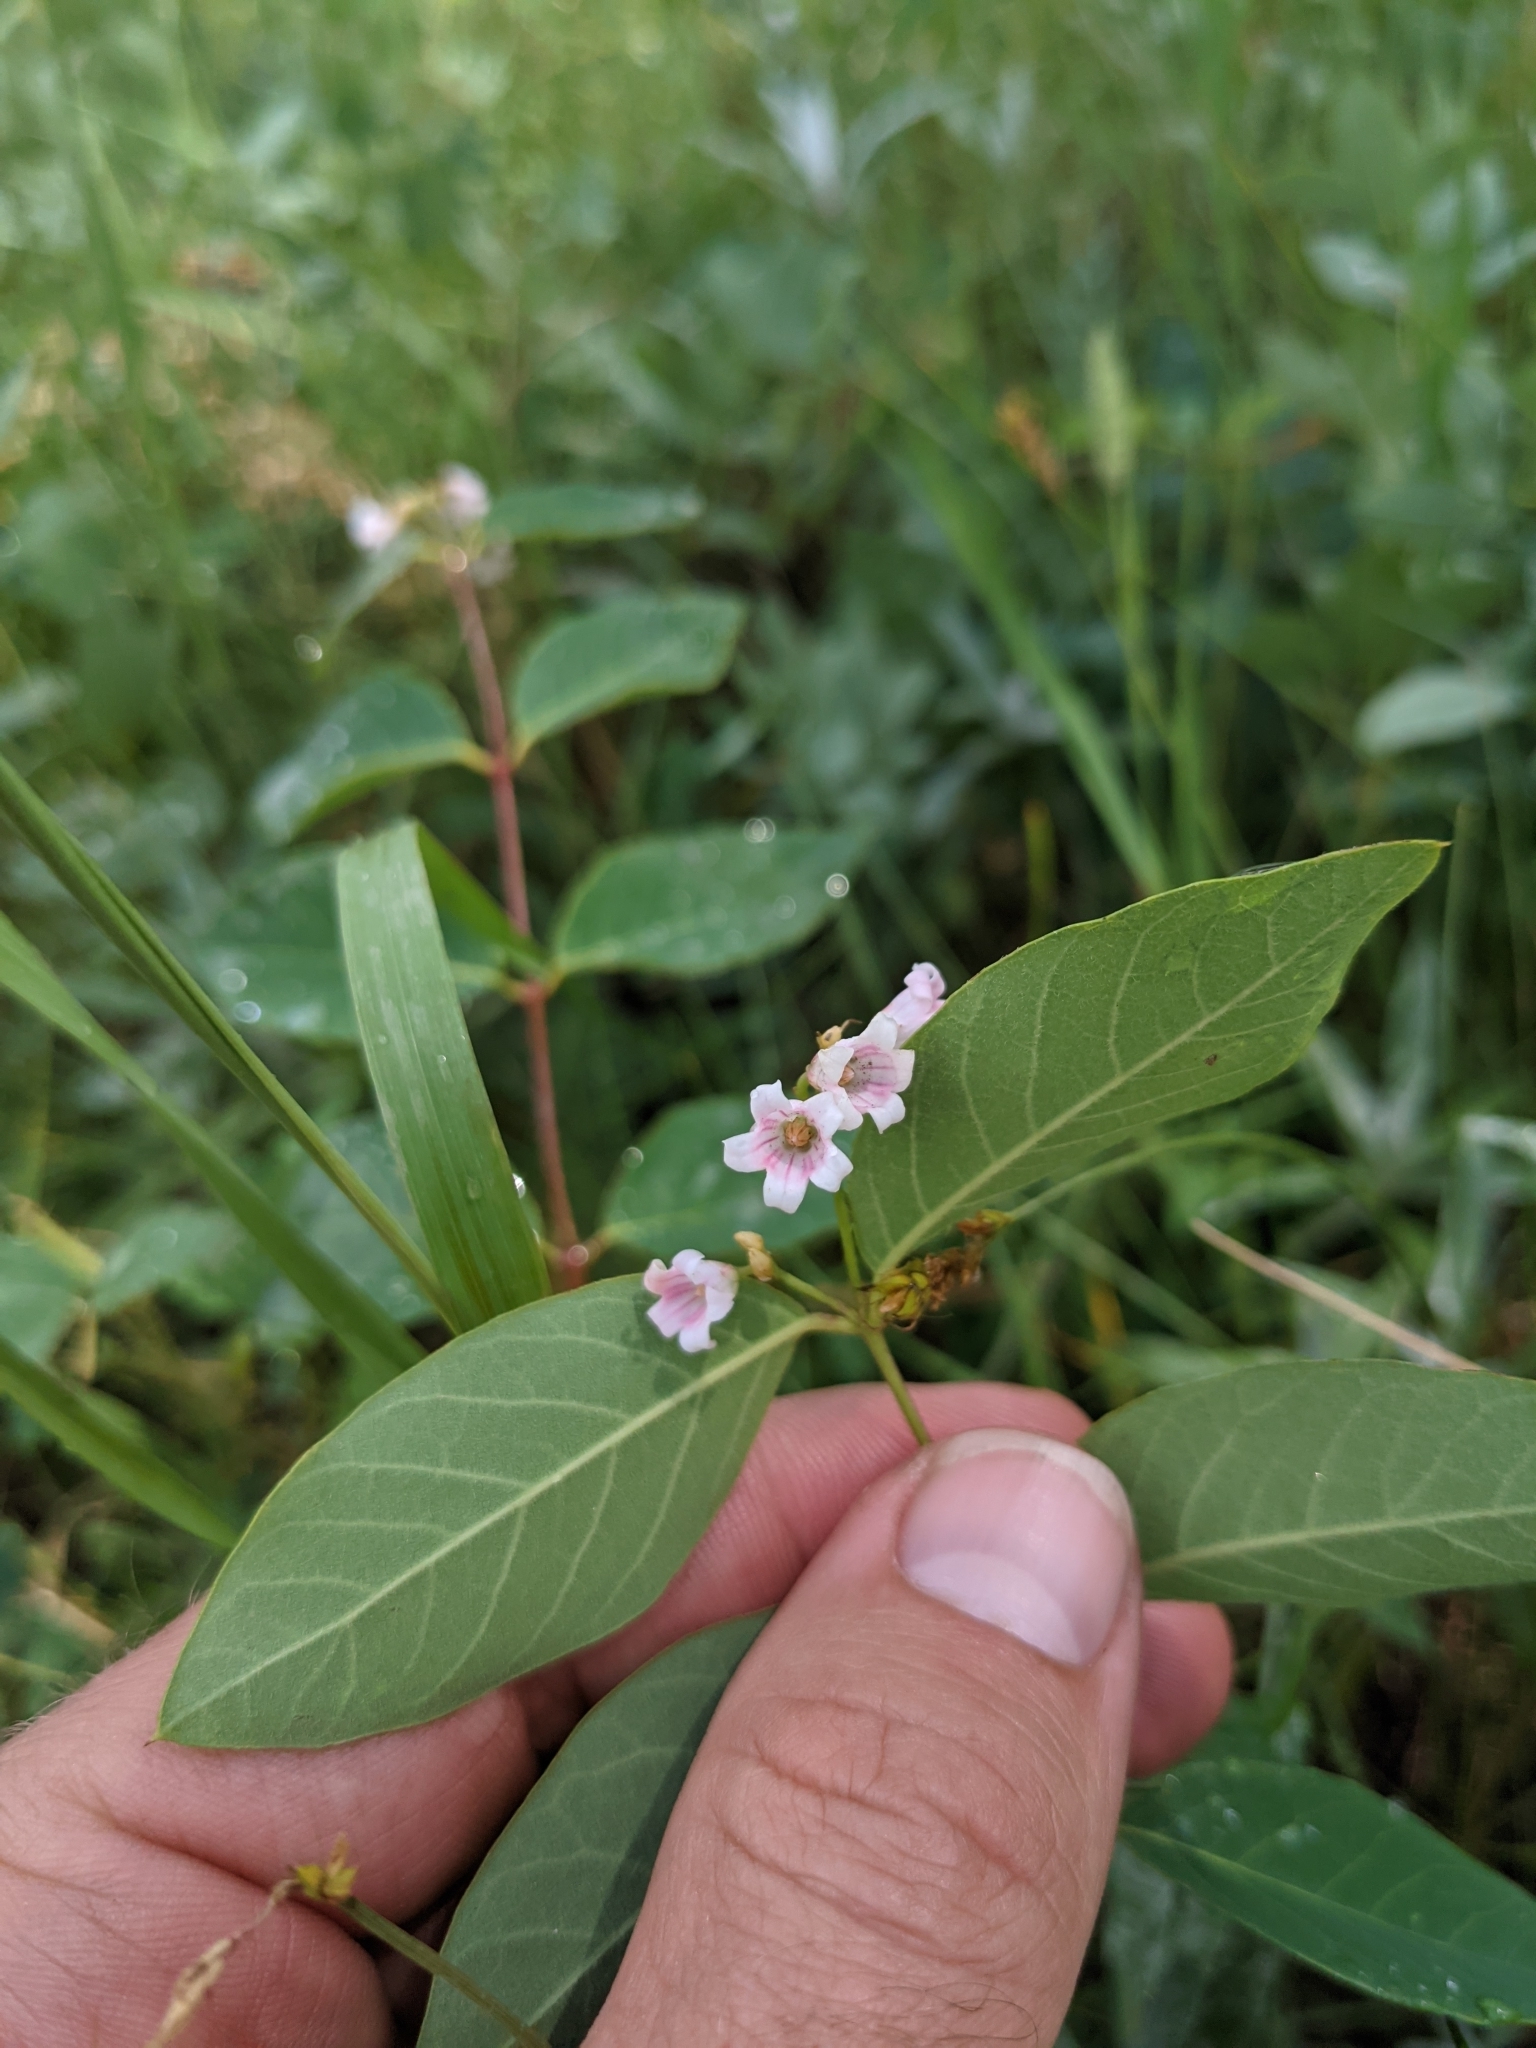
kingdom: Plantae
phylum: Tracheophyta
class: Magnoliopsida
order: Gentianales
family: Apocynaceae
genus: Apocynum
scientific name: Apocynum androsaemifolium
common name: Spreading dogbane
